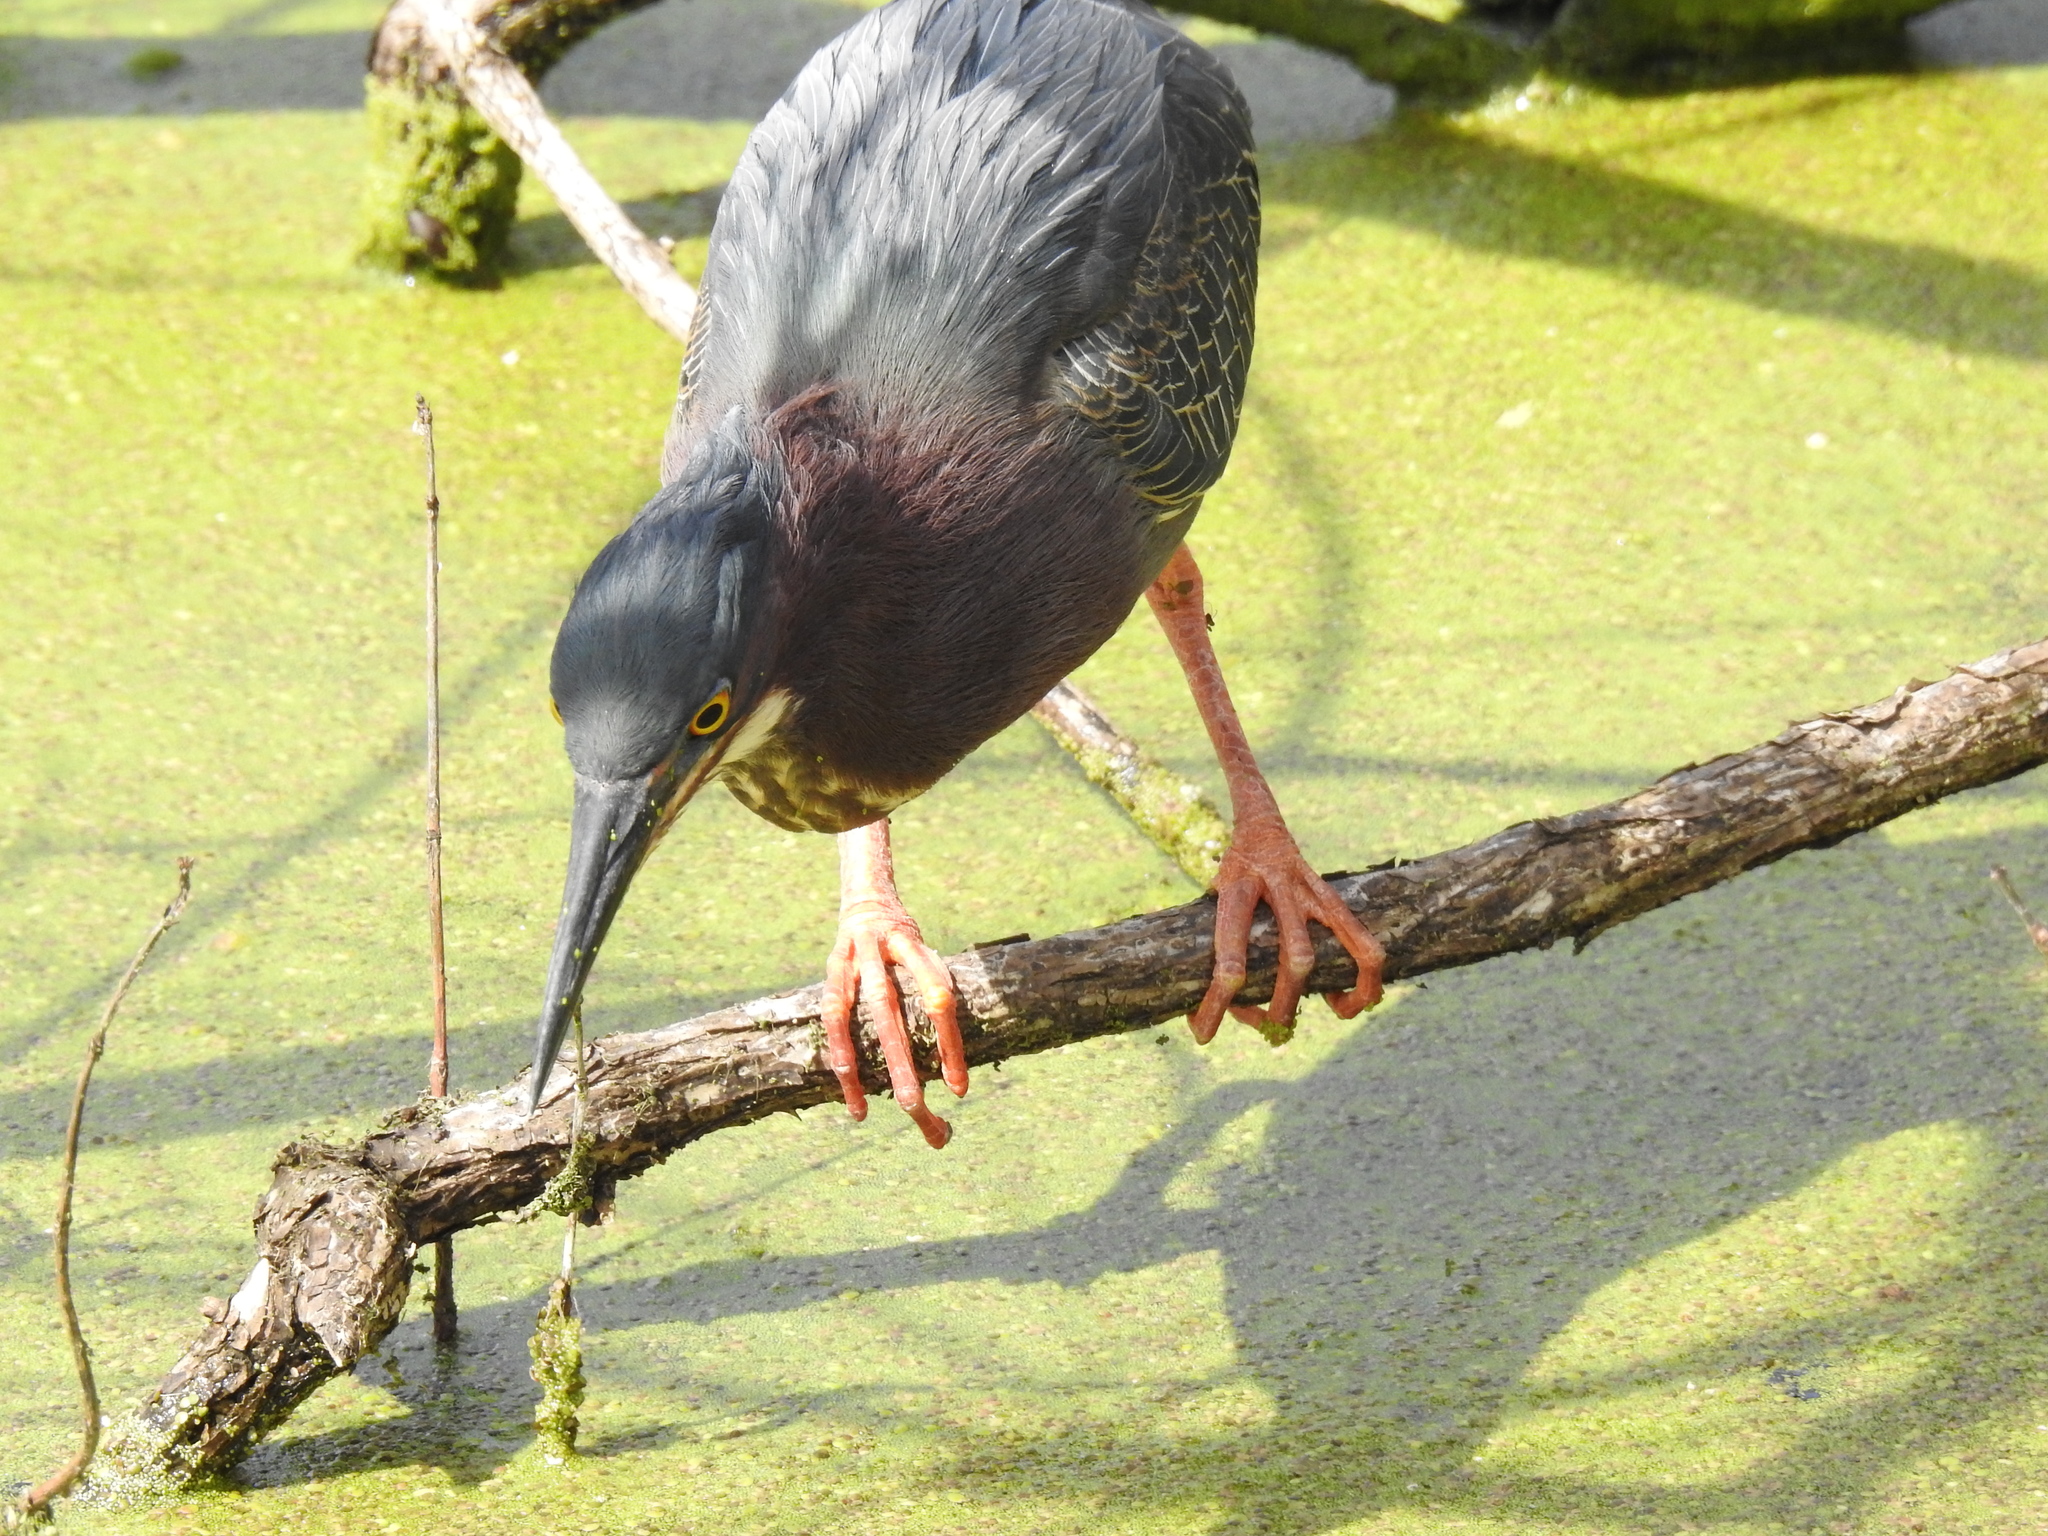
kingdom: Animalia
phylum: Chordata
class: Aves
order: Pelecaniformes
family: Ardeidae
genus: Butorides
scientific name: Butorides virescens
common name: Green heron
